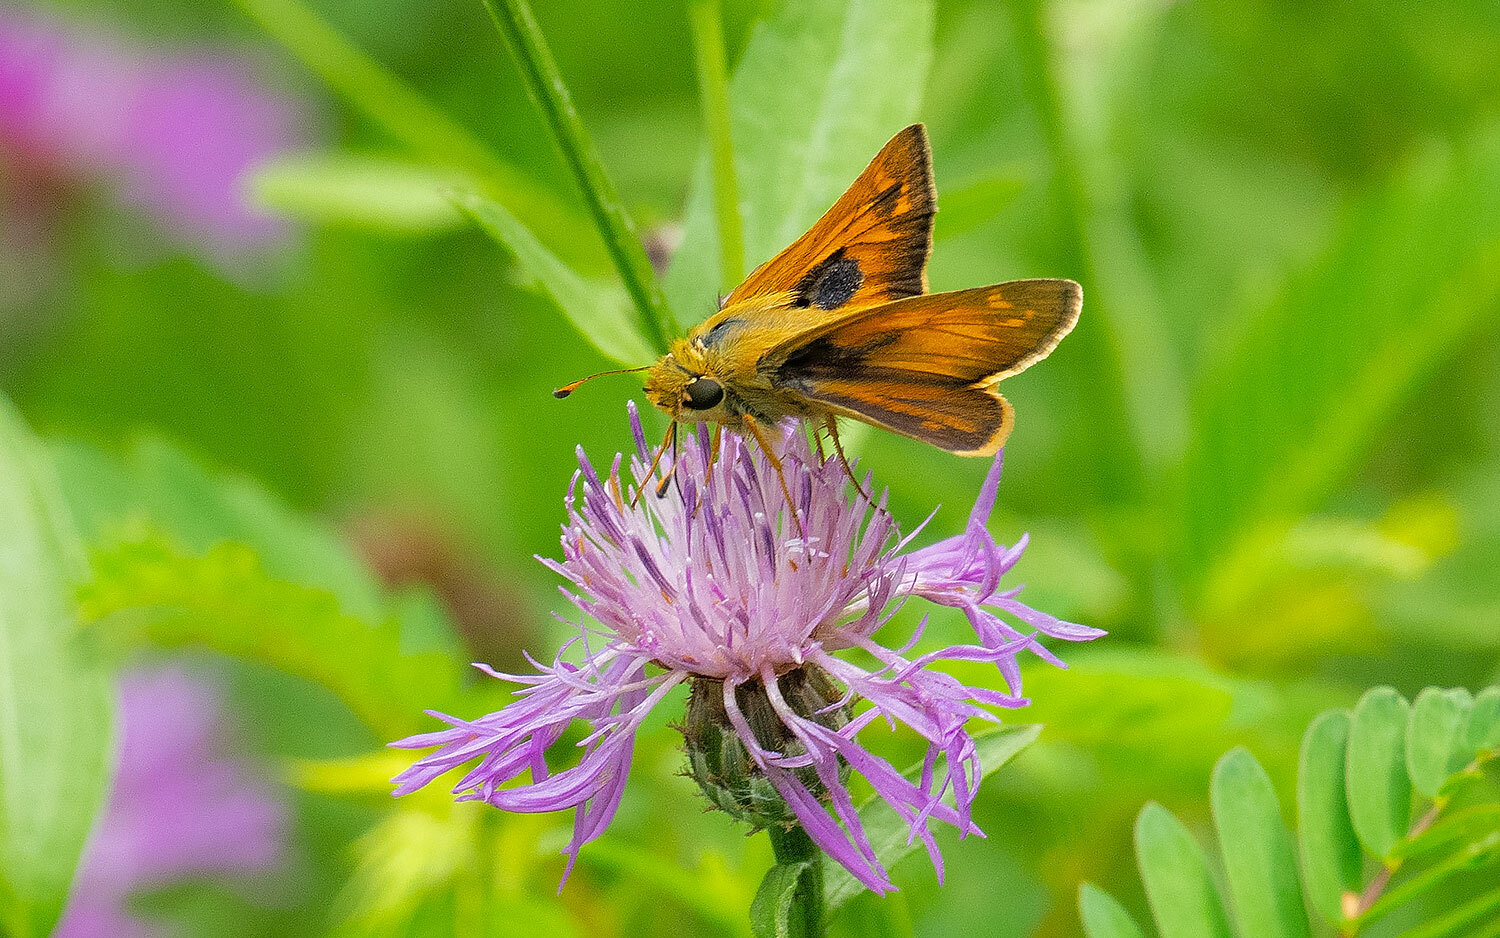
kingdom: Animalia
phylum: Arthropoda
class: Insecta
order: Lepidoptera
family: Hesperiidae
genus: Atalopedes
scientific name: Atalopedes
